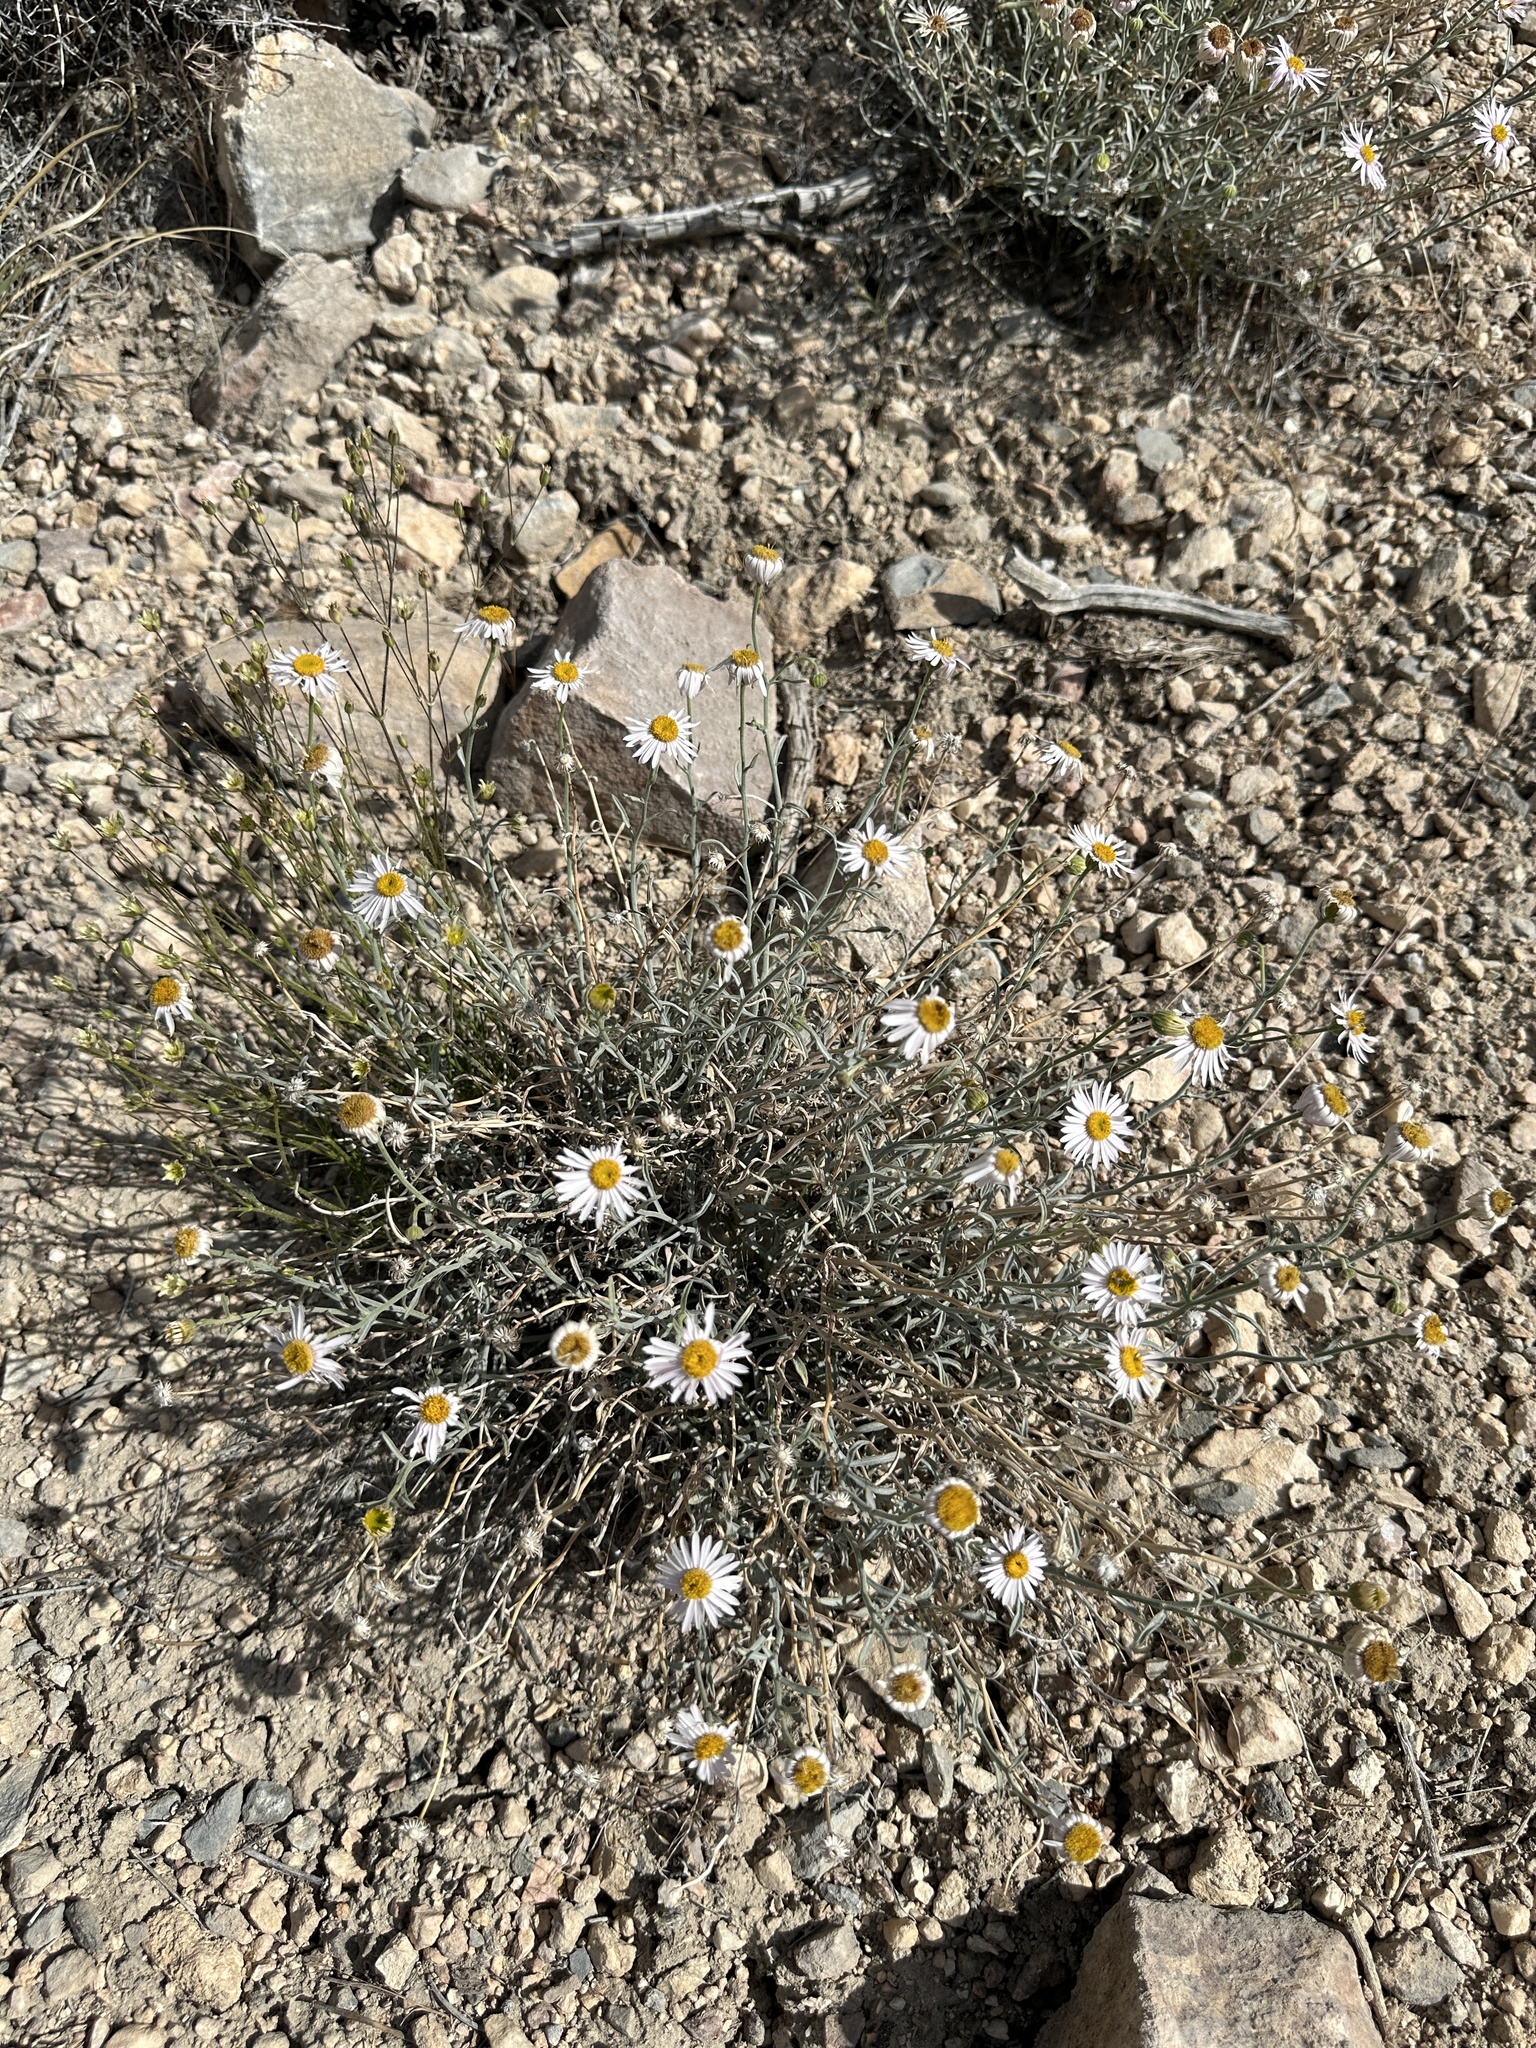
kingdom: Plantae
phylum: Tracheophyta
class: Magnoliopsida
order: Asterales
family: Asteraceae
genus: Erigeron
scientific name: Erigeron parishii
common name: Parish's daisy
